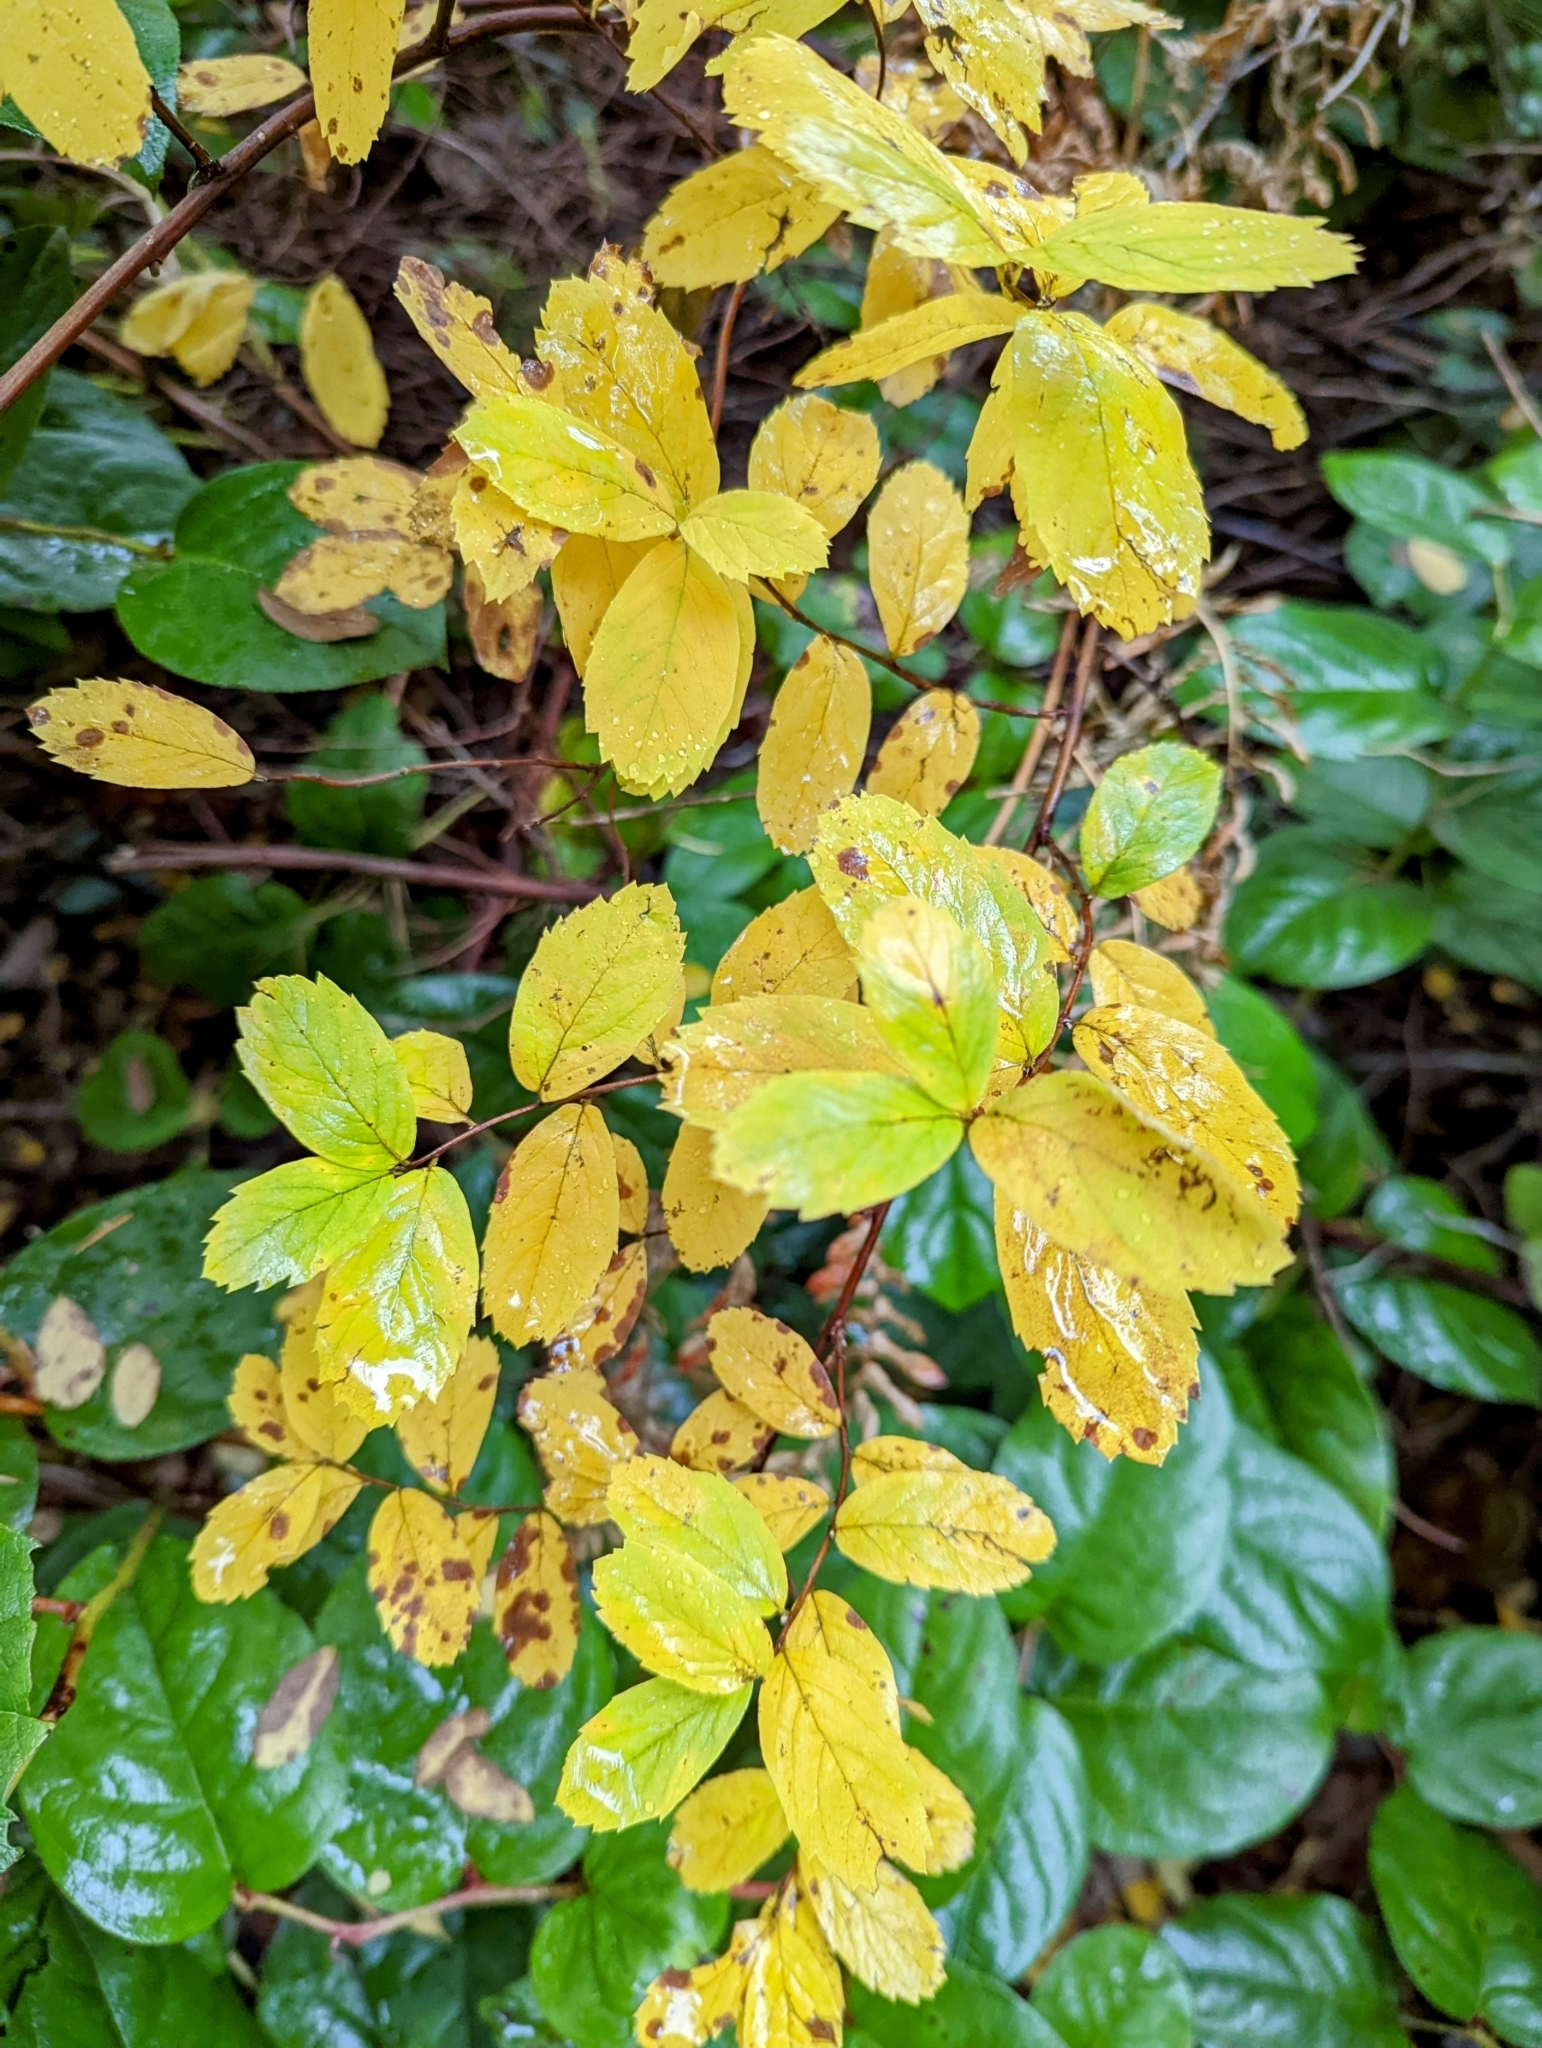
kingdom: Plantae
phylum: Tracheophyta
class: Magnoliopsida
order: Rosales
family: Rosaceae
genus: Spiraea
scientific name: Spiraea douglasii
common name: Steeplebush
